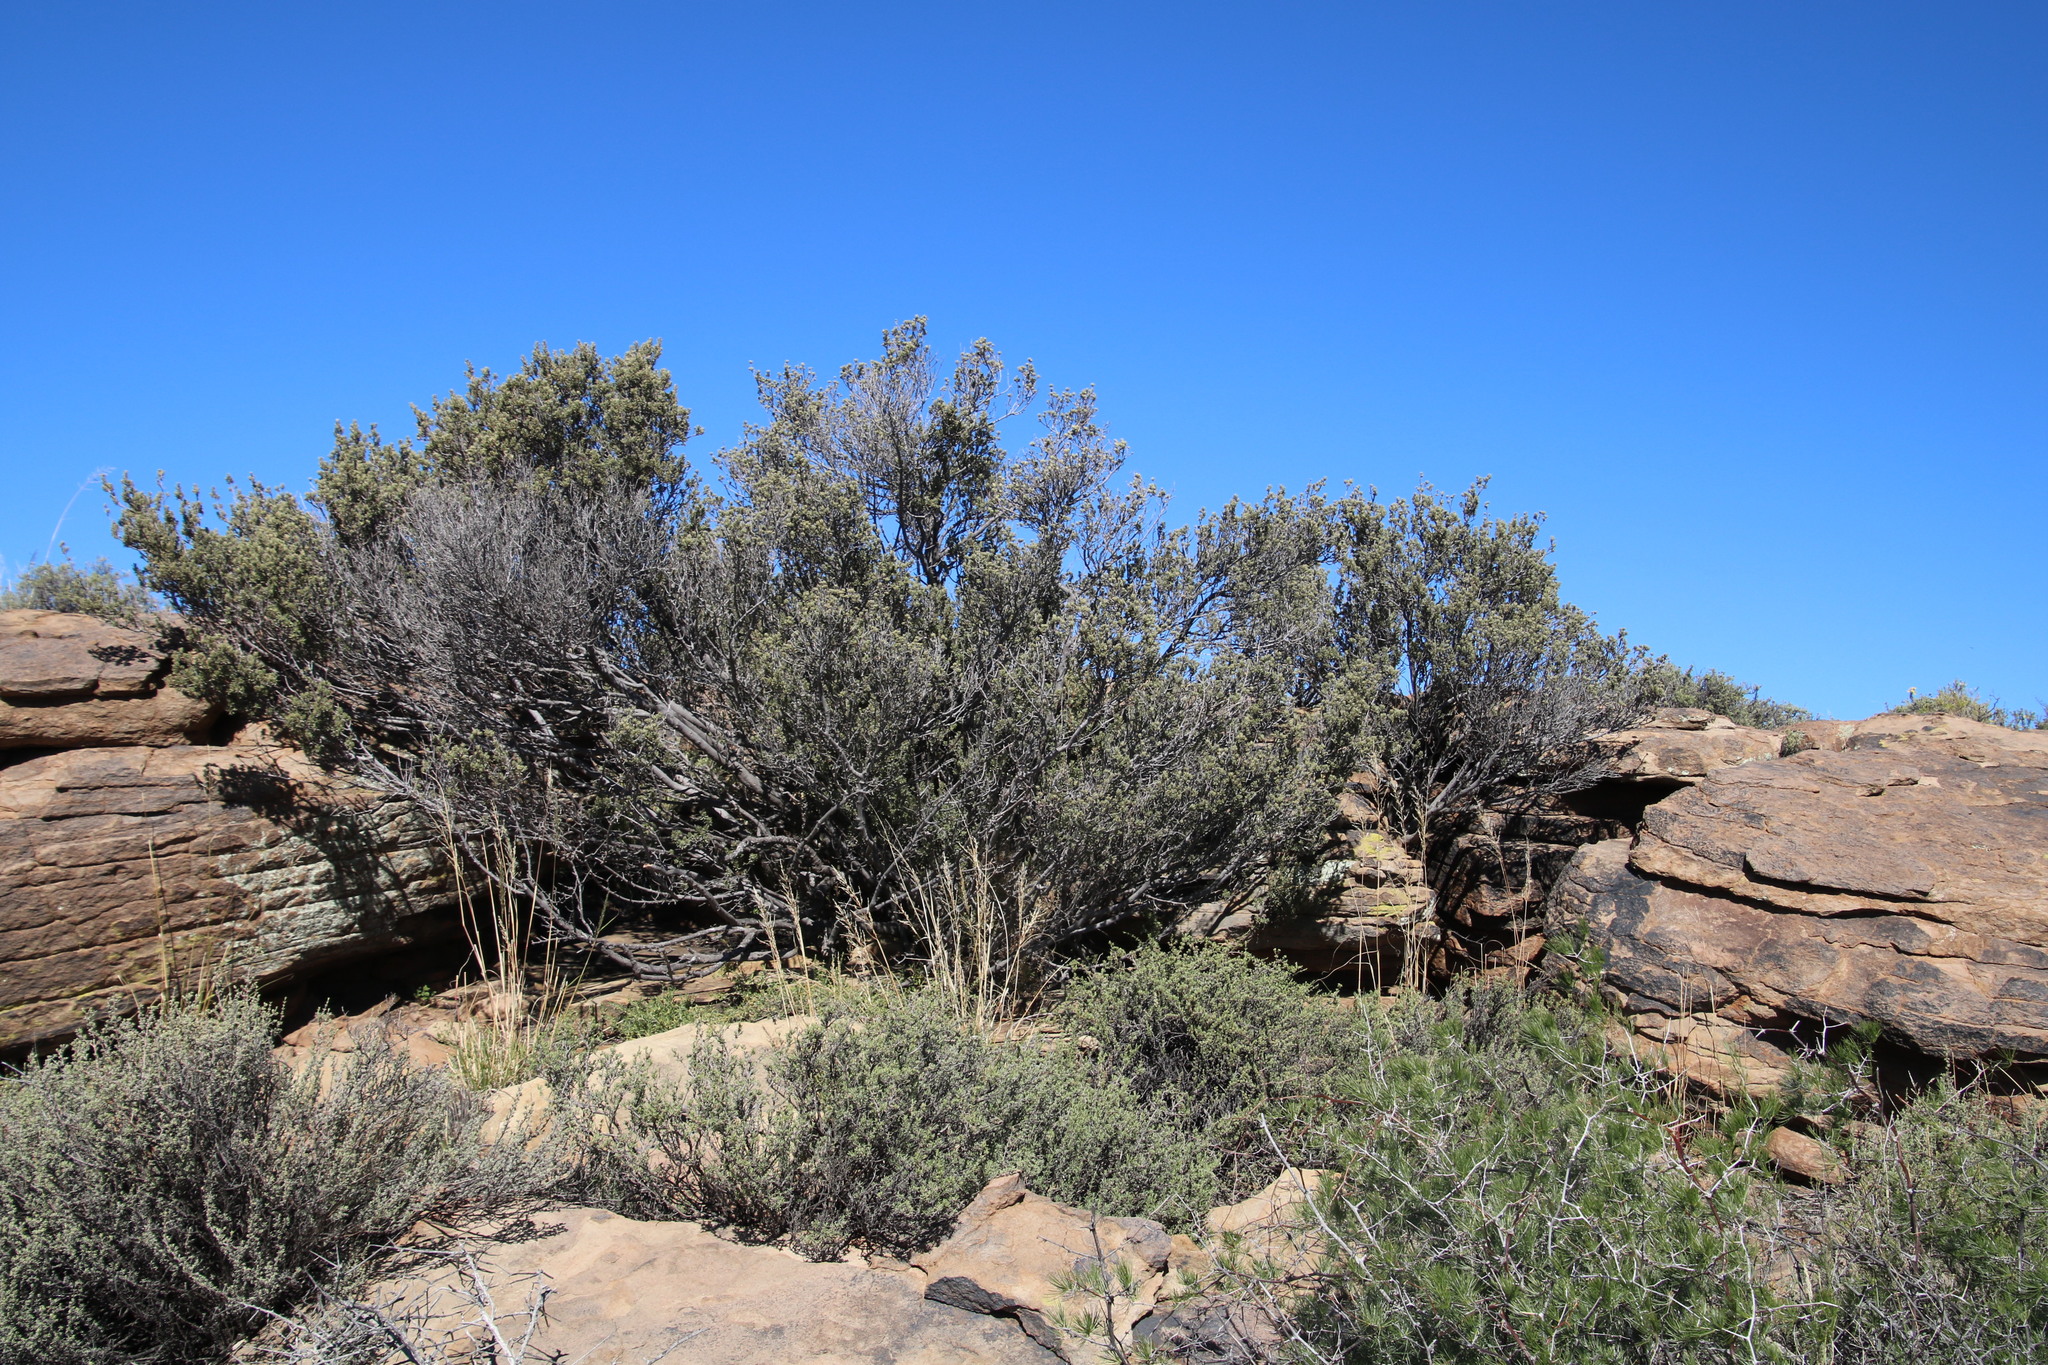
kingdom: Plantae
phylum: Tracheophyta
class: Magnoliopsida
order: Ericales
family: Ebenaceae
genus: Diospyros
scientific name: Diospyros pubescens
